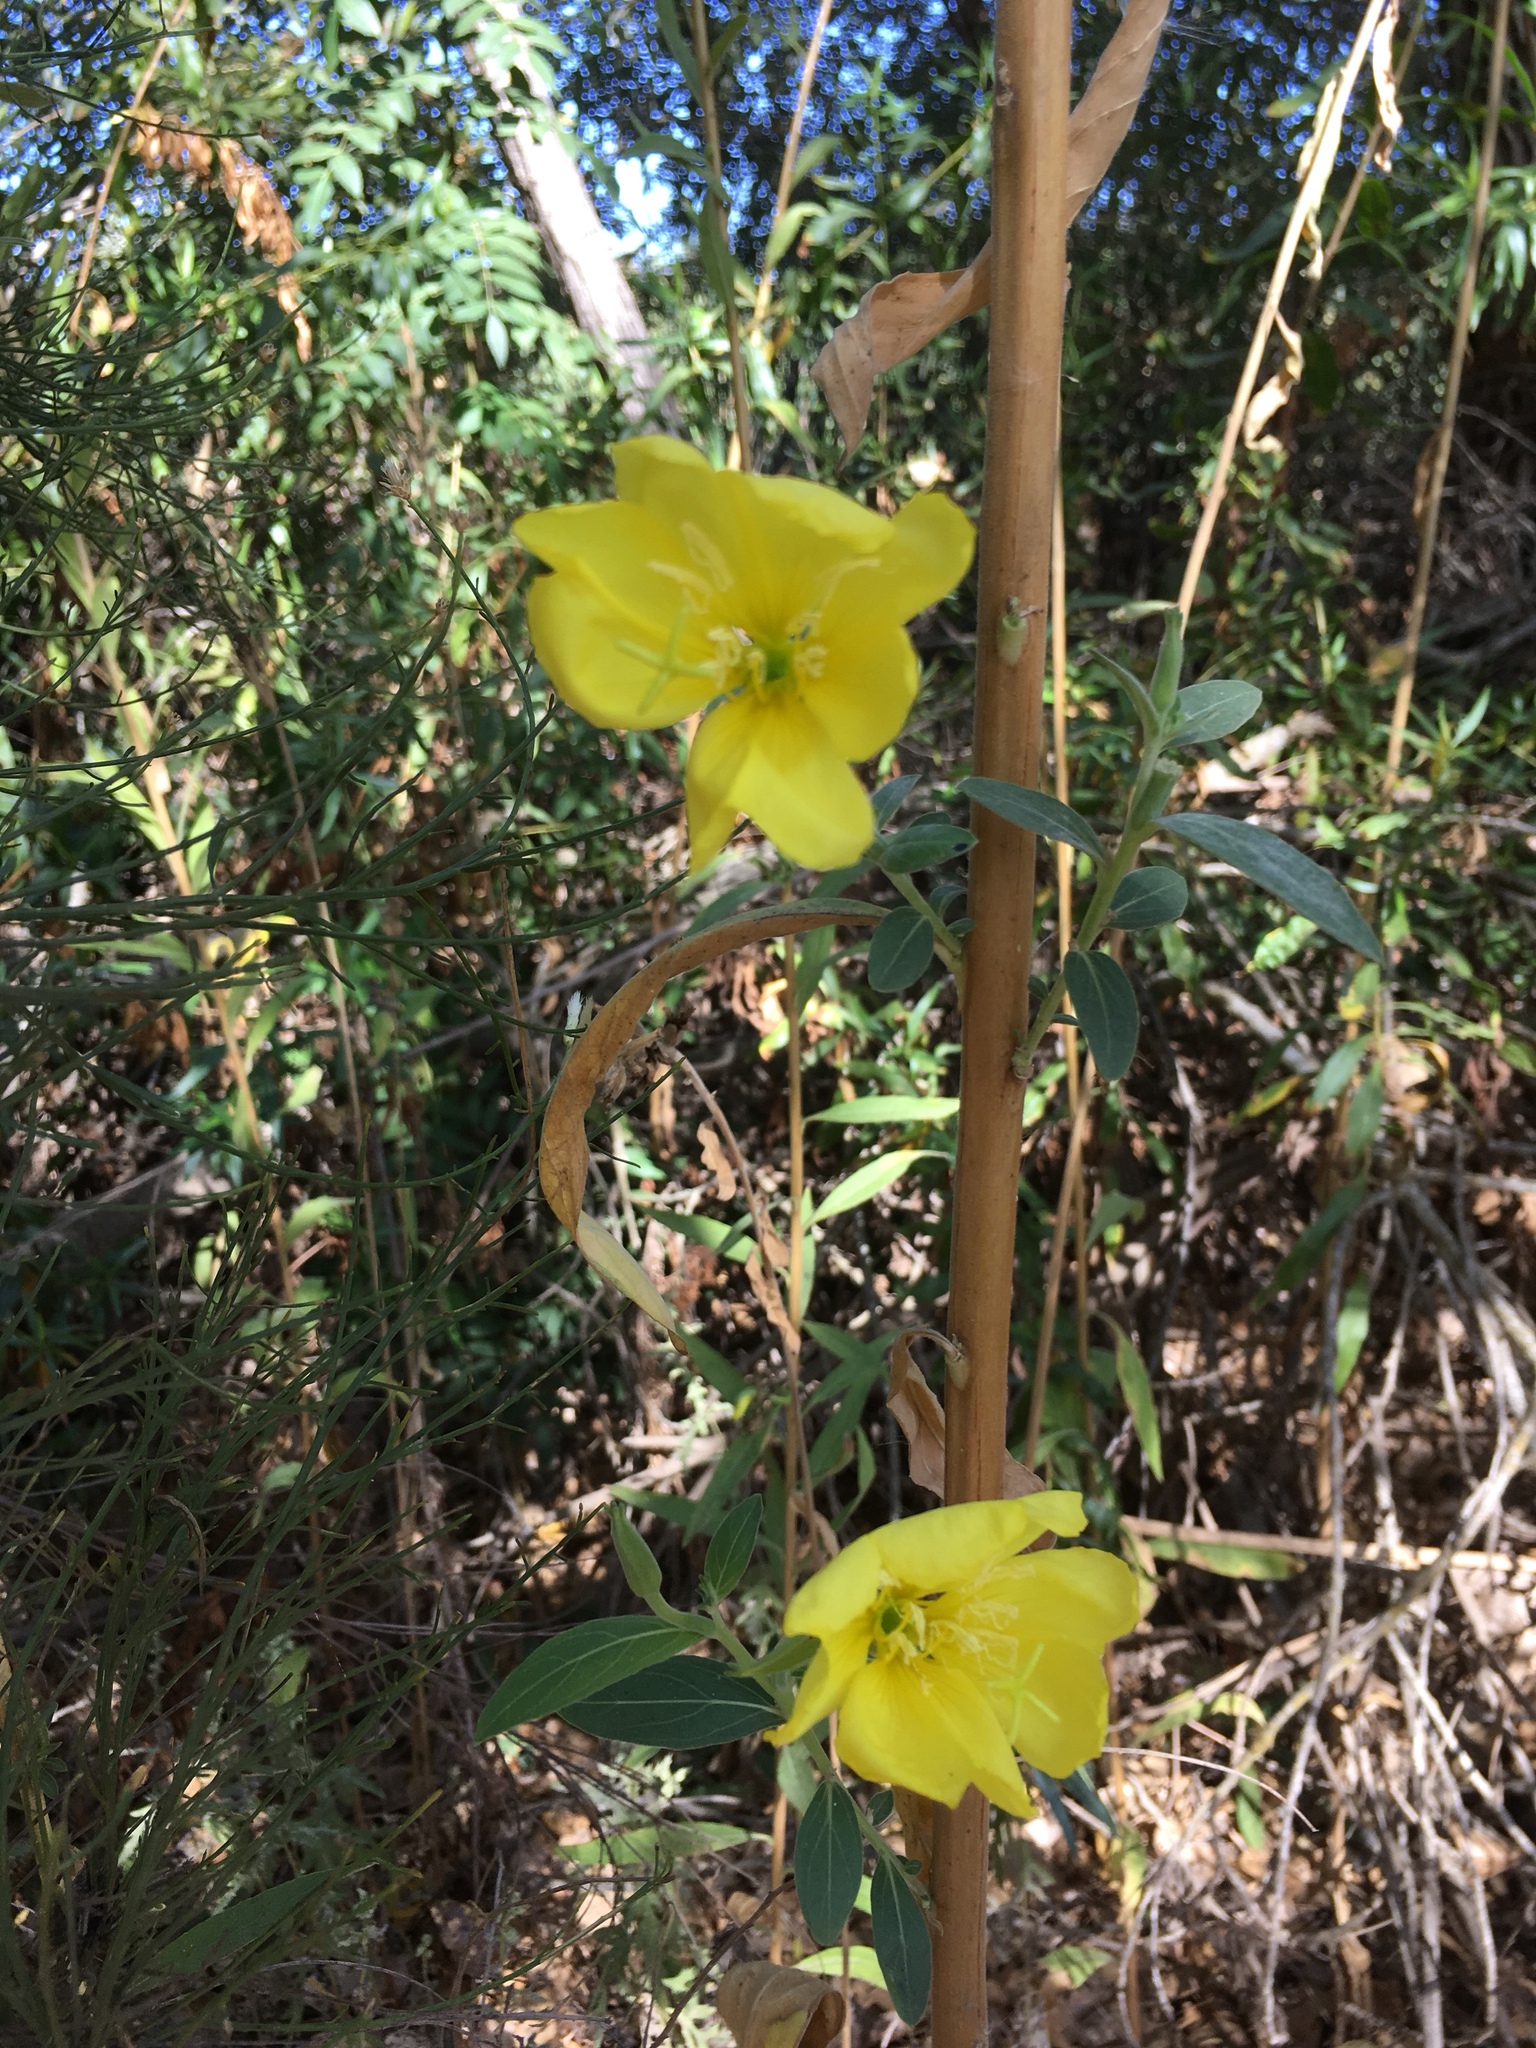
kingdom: Plantae
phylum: Tracheophyta
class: Magnoliopsida
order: Myrtales
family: Onagraceae
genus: Oenothera
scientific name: Oenothera elata
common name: Hooker's evening-primrose
